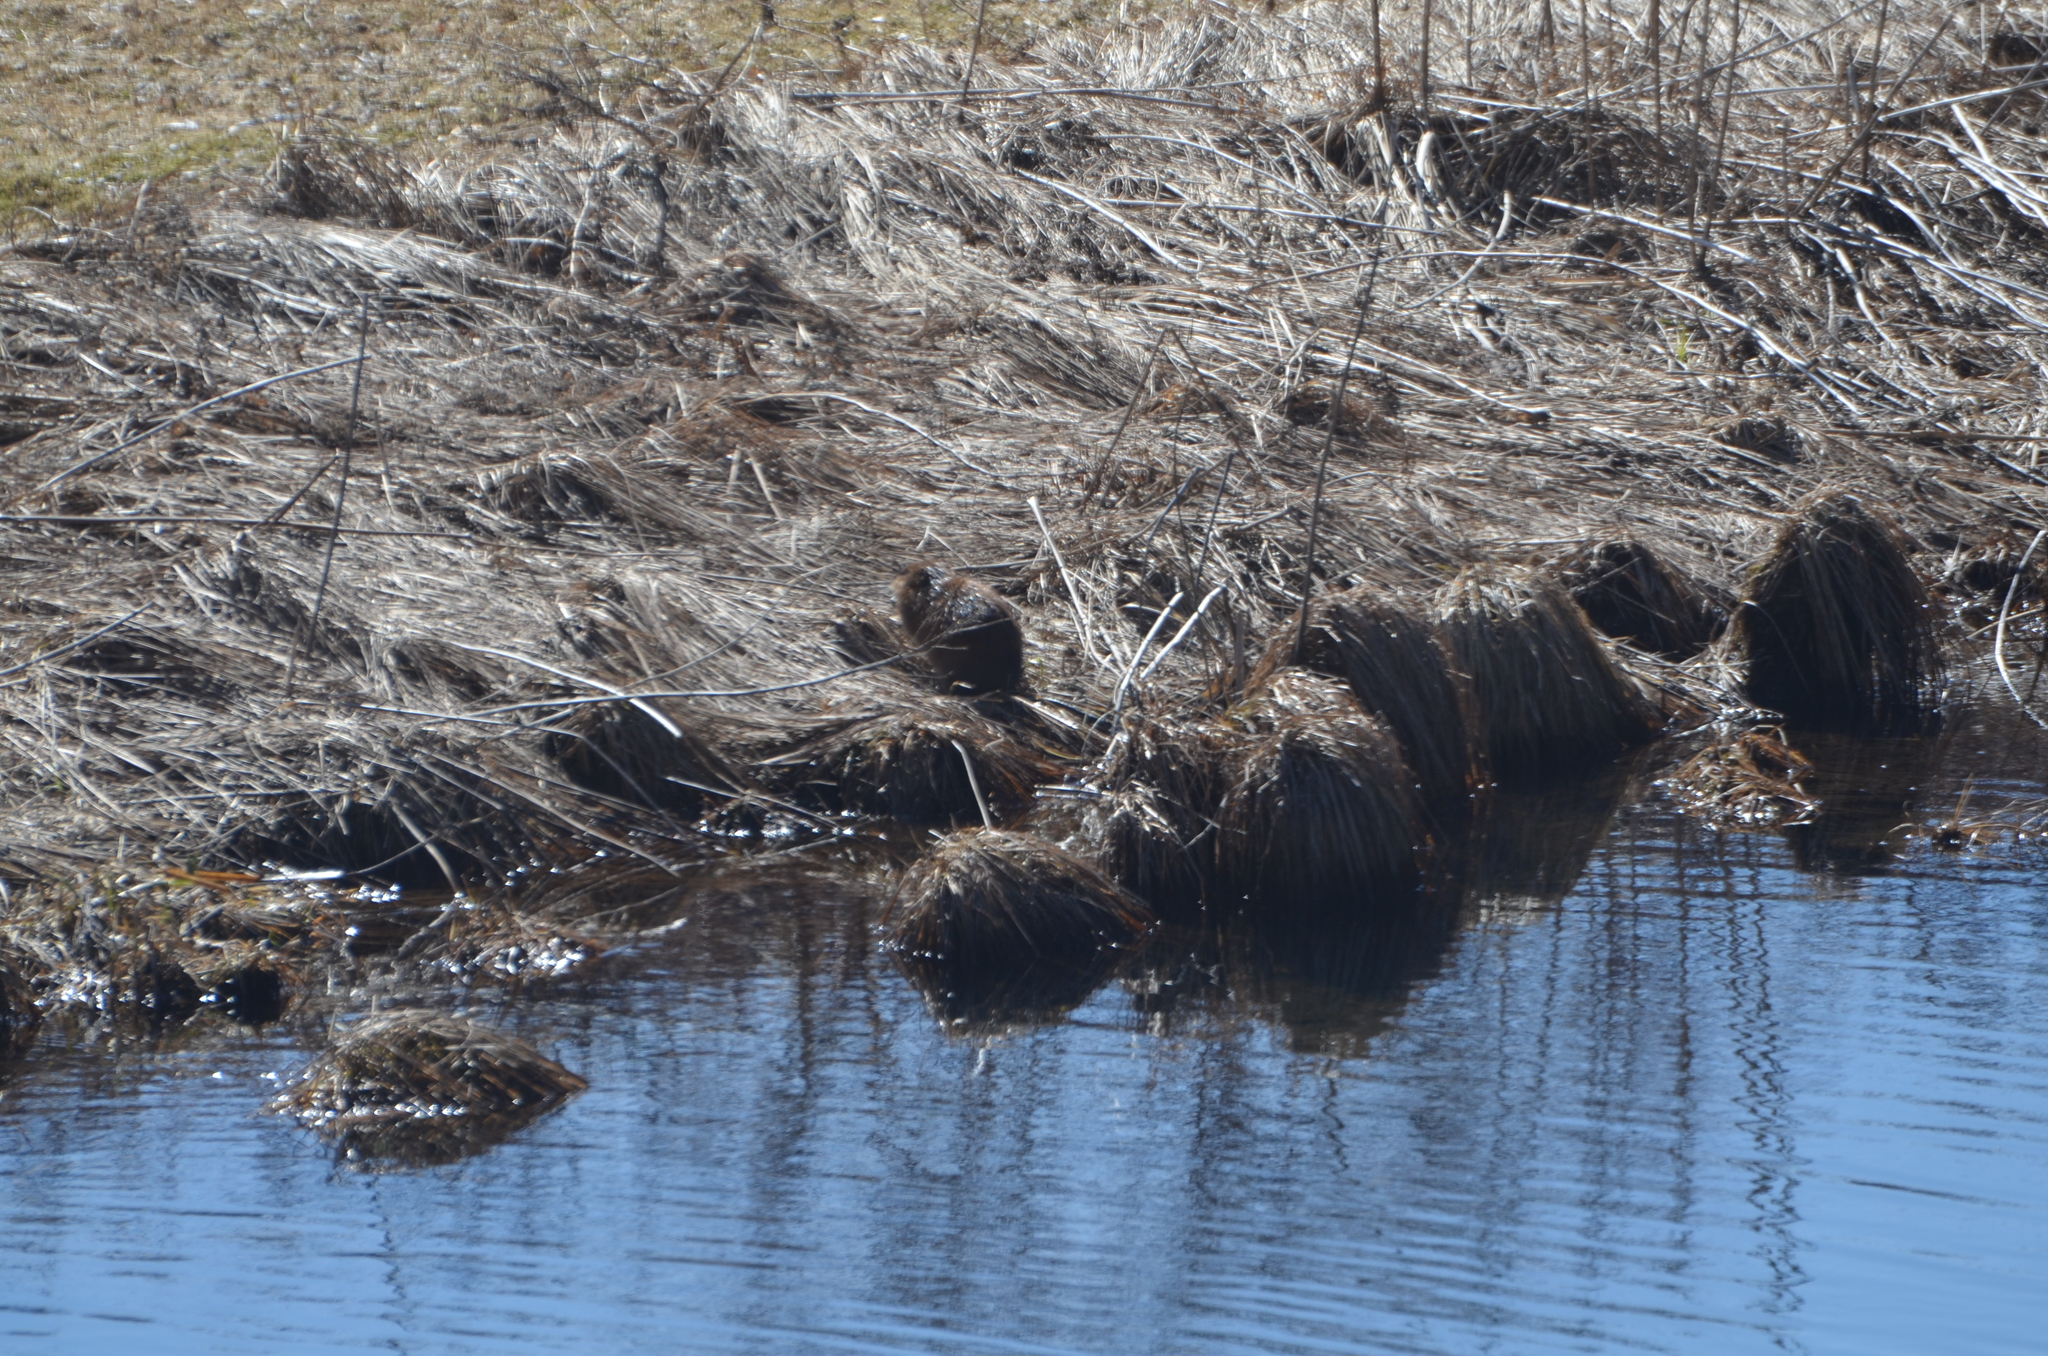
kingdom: Animalia
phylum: Chordata
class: Mammalia
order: Rodentia
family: Cricetidae
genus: Ondatra
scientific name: Ondatra zibethicus
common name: Muskrat
